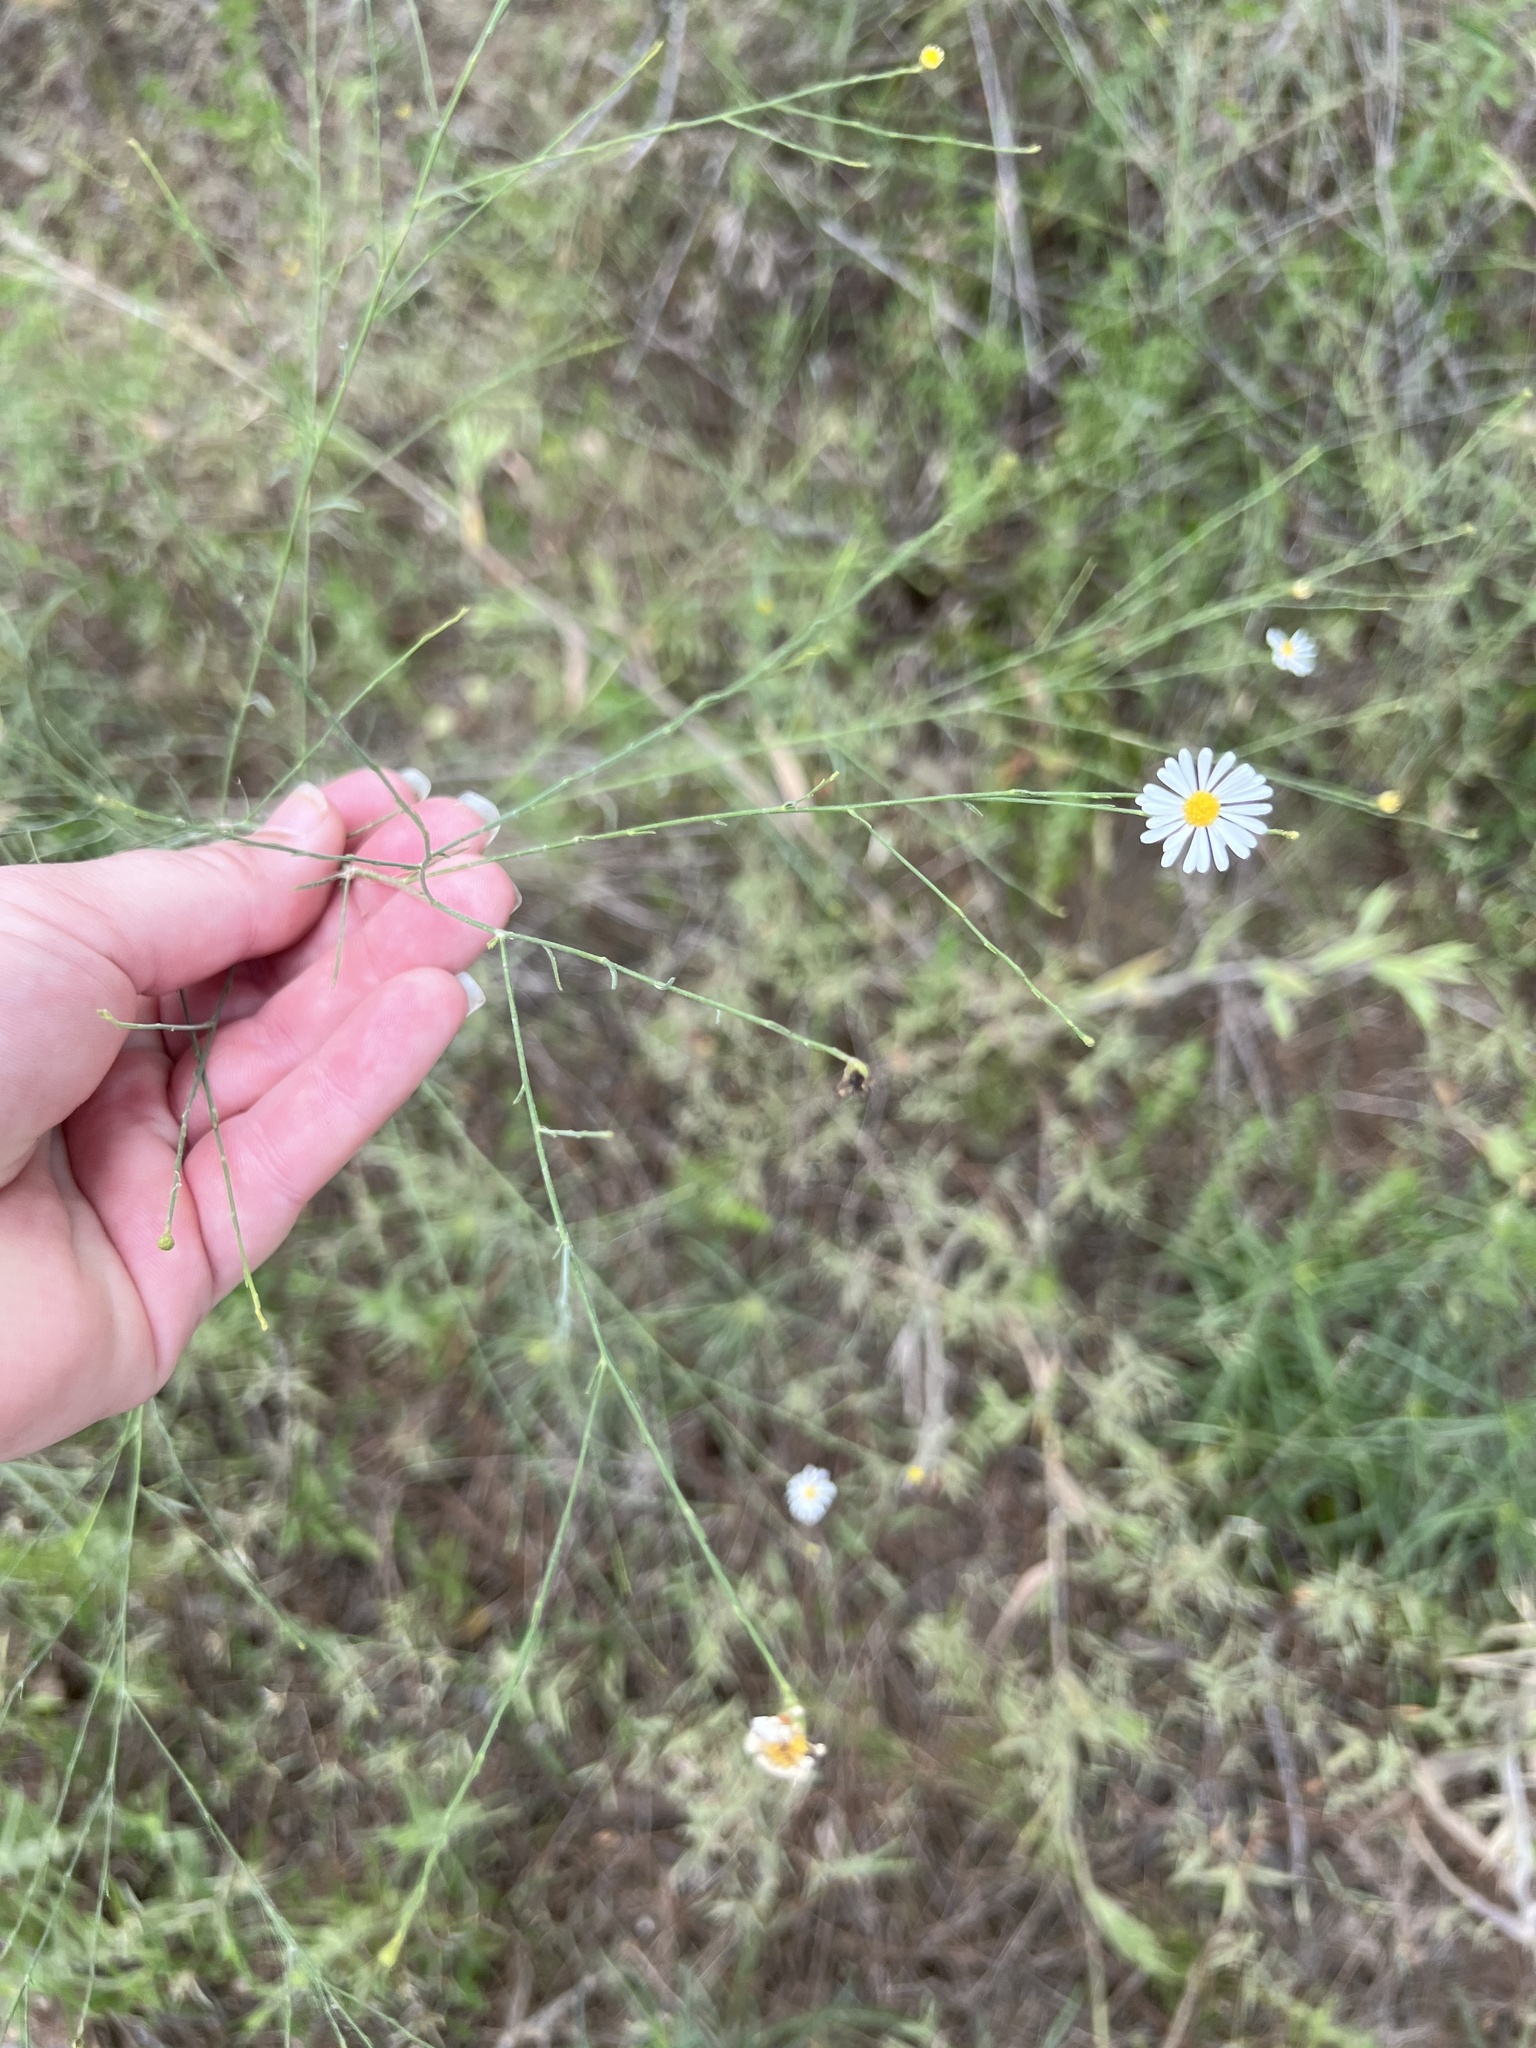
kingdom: Plantae
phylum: Tracheophyta
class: Magnoliopsida
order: Asterales
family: Asteraceae
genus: Boltonia
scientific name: Boltonia diffusa
